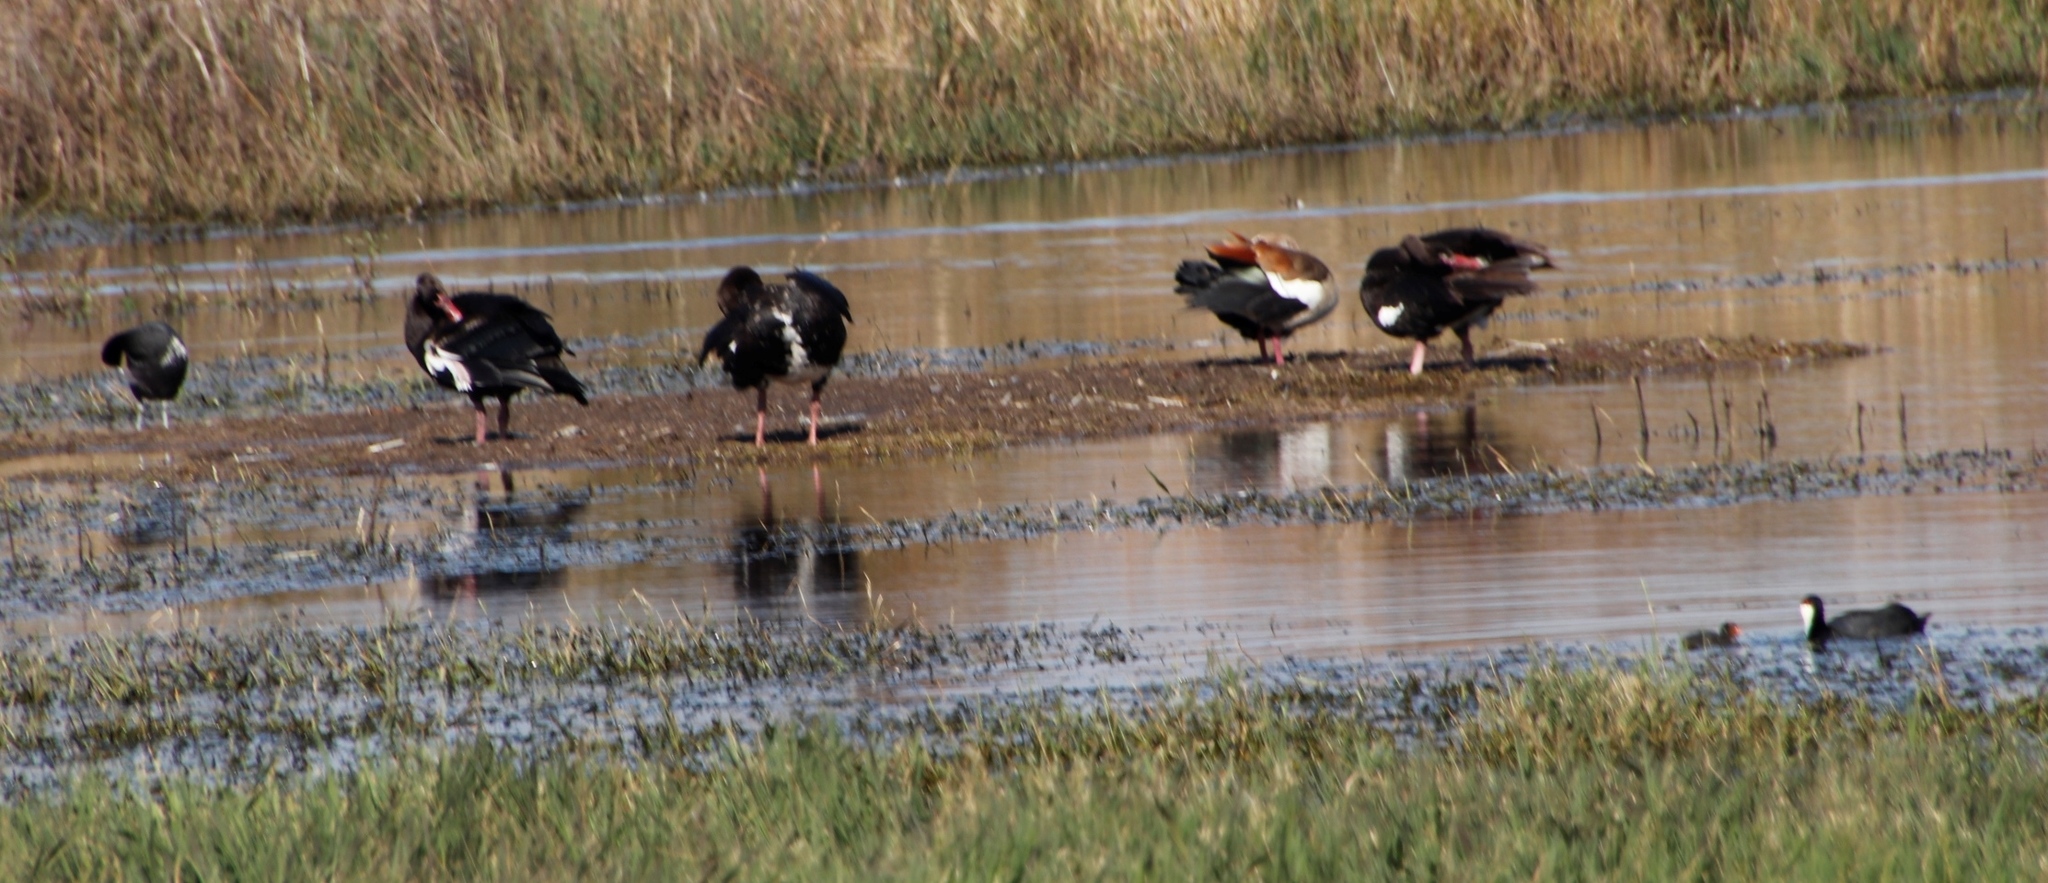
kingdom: Animalia
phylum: Chordata
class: Aves
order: Anseriformes
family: Anatidae
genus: Plectropterus
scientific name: Plectropterus gambensis
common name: Spur-winged goose
